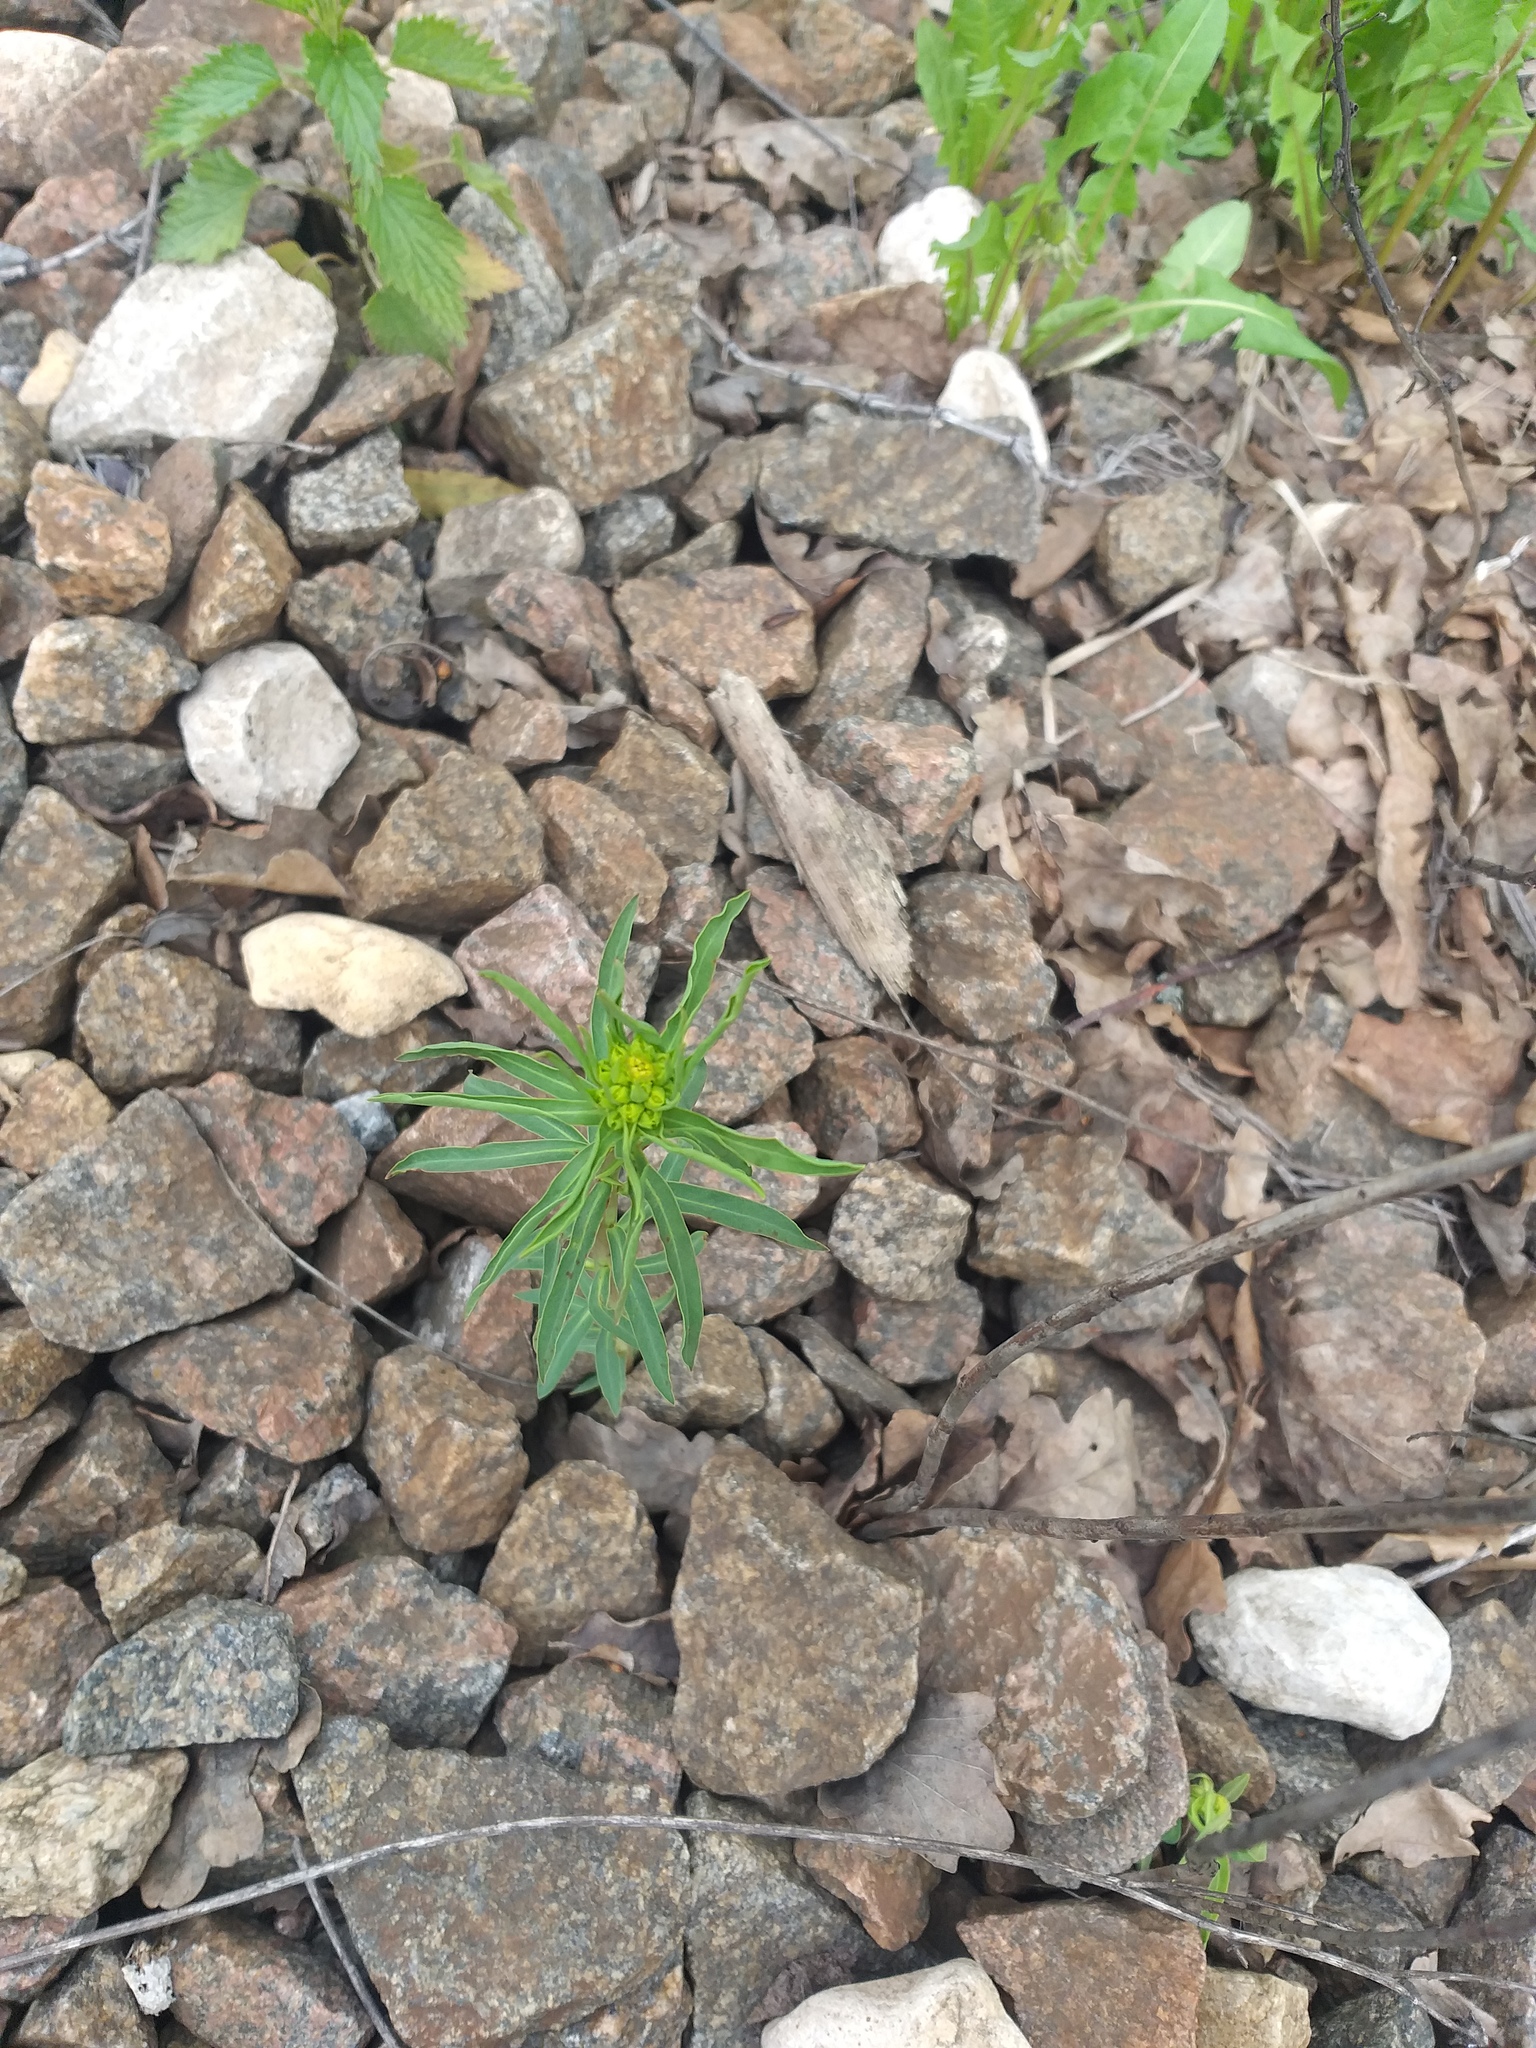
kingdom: Plantae
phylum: Tracheophyta
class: Magnoliopsida
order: Malpighiales
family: Euphorbiaceae
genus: Euphorbia
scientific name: Euphorbia virgata
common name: Leafy spurge
